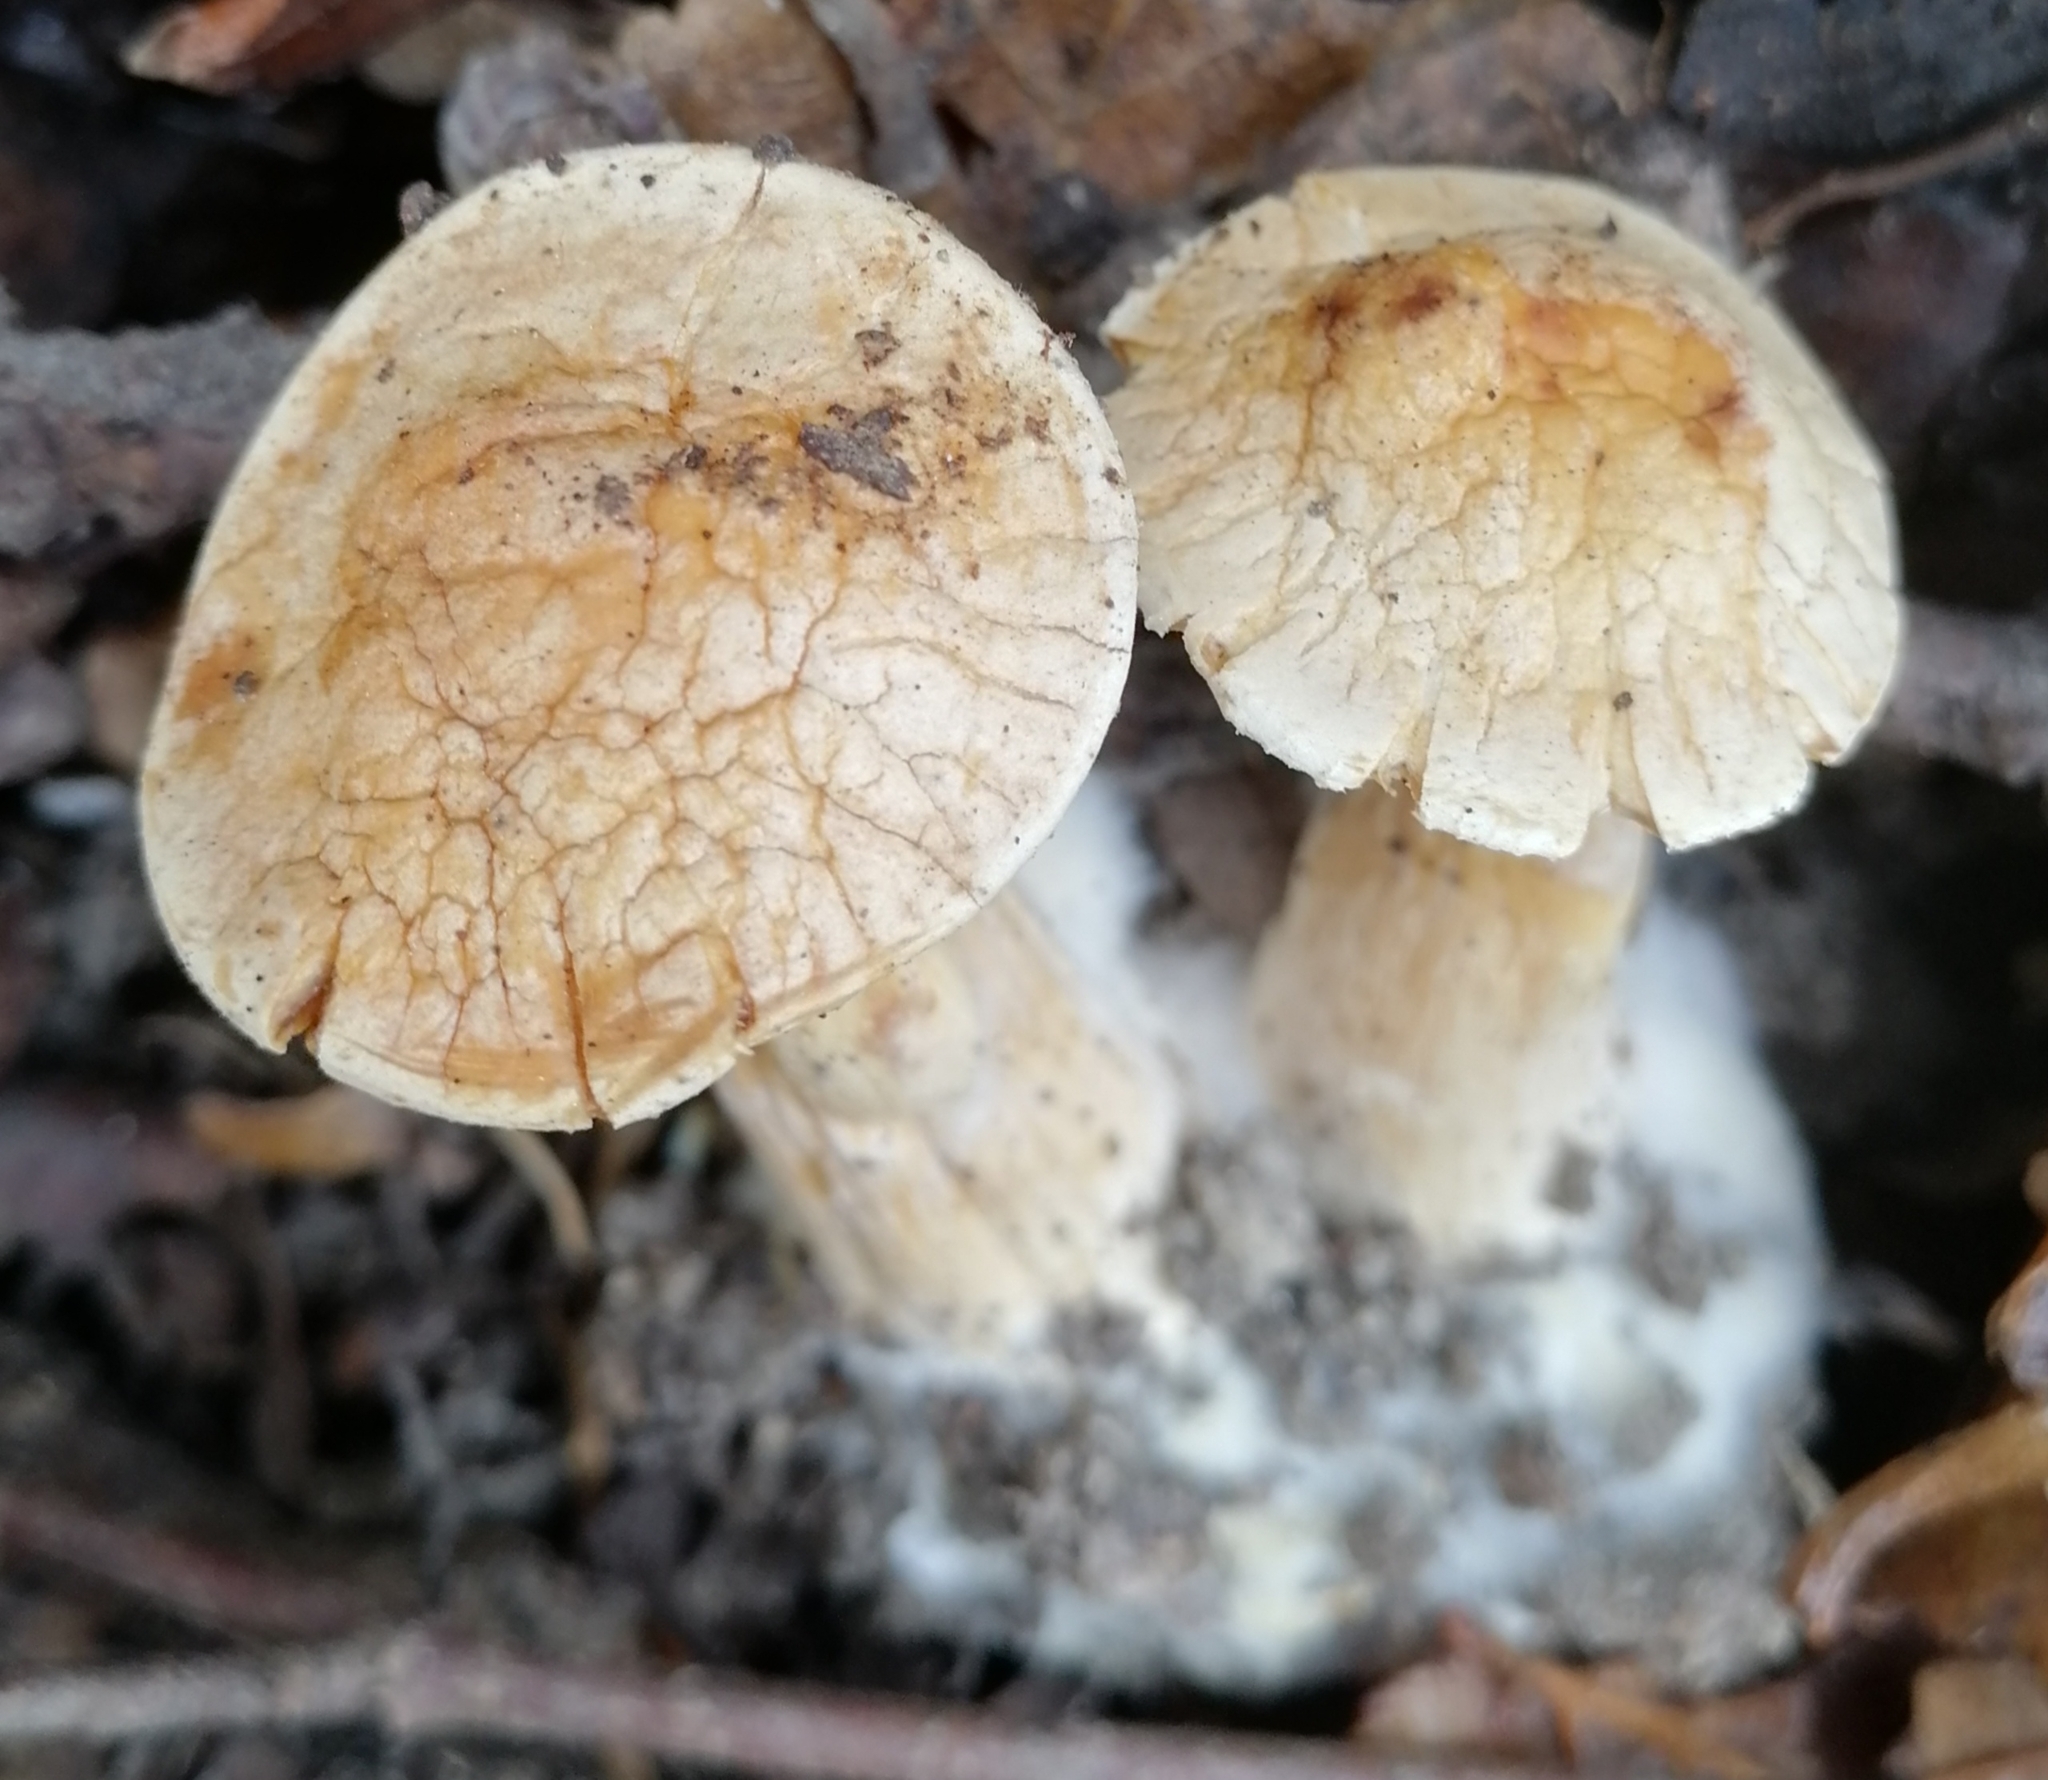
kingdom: Fungi
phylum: Basidiomycota
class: Agaricomycetes
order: Agaricales
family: Tricholomataceae
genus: Infundibulicybe
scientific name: Infundibulicybe geotropa
